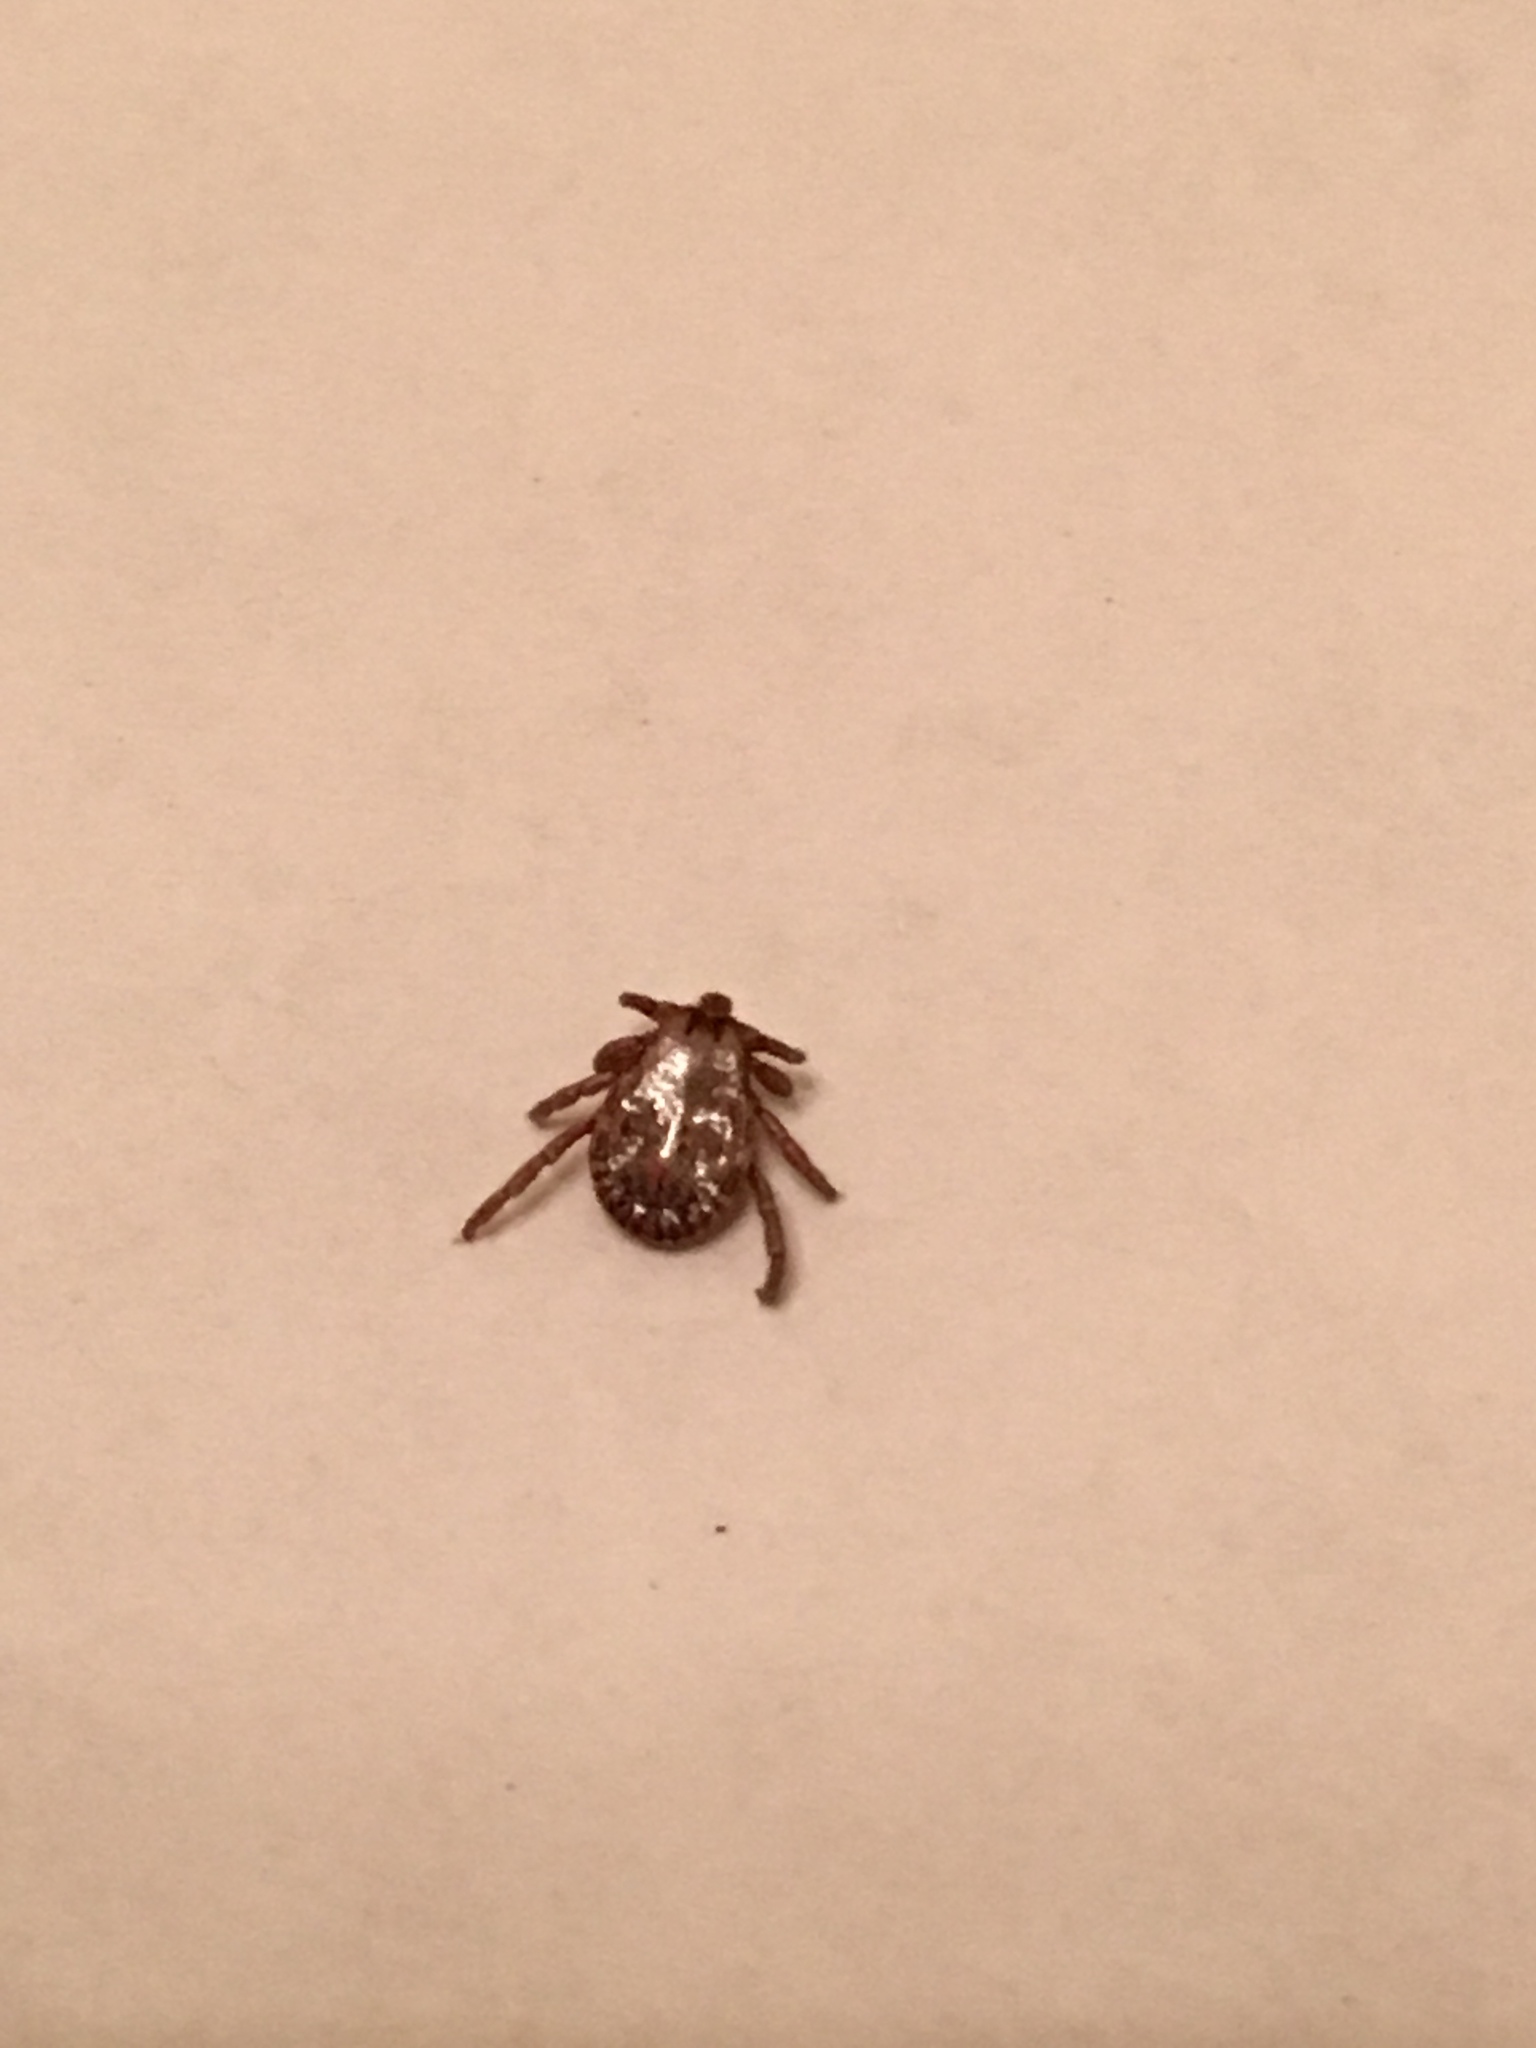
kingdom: Animalia
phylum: Arthropoda
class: Arachnida
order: Ixodida
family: Ixodidae
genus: Dermacentor
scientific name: Dermacentor occidentalis
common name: Net tick
